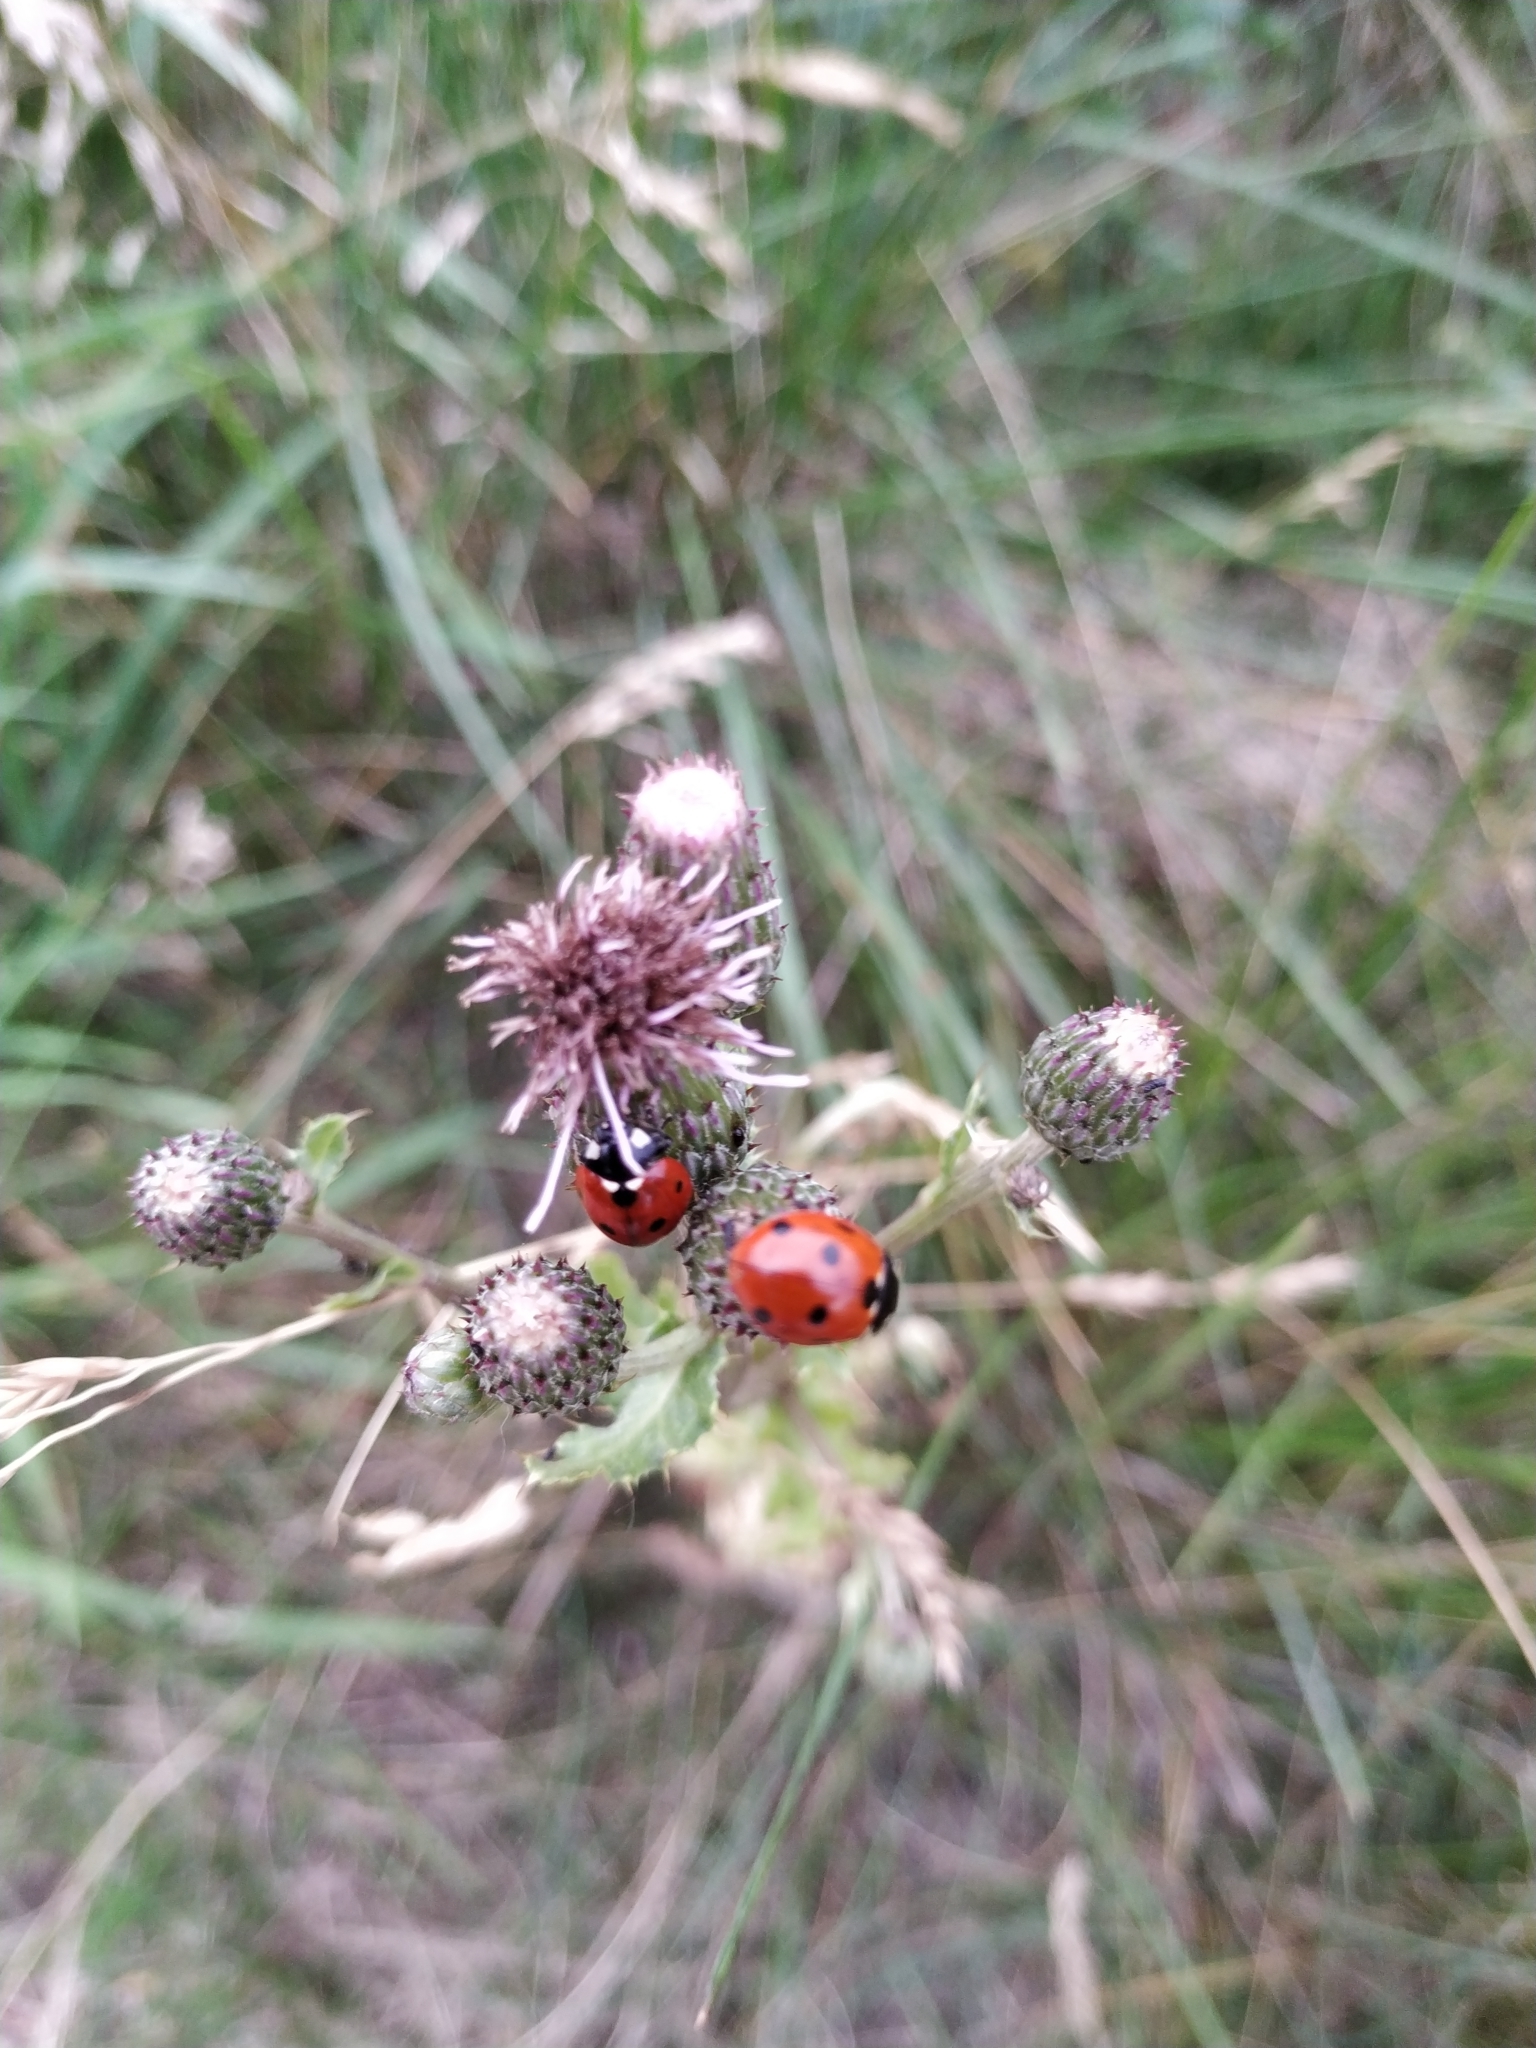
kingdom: Animalia
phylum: Arthropoda
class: Insecta
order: Coleoptera
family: Coccinellidae
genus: Coccinella
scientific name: Coccinella septempunctata
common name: Sevenspotted lady beetle
